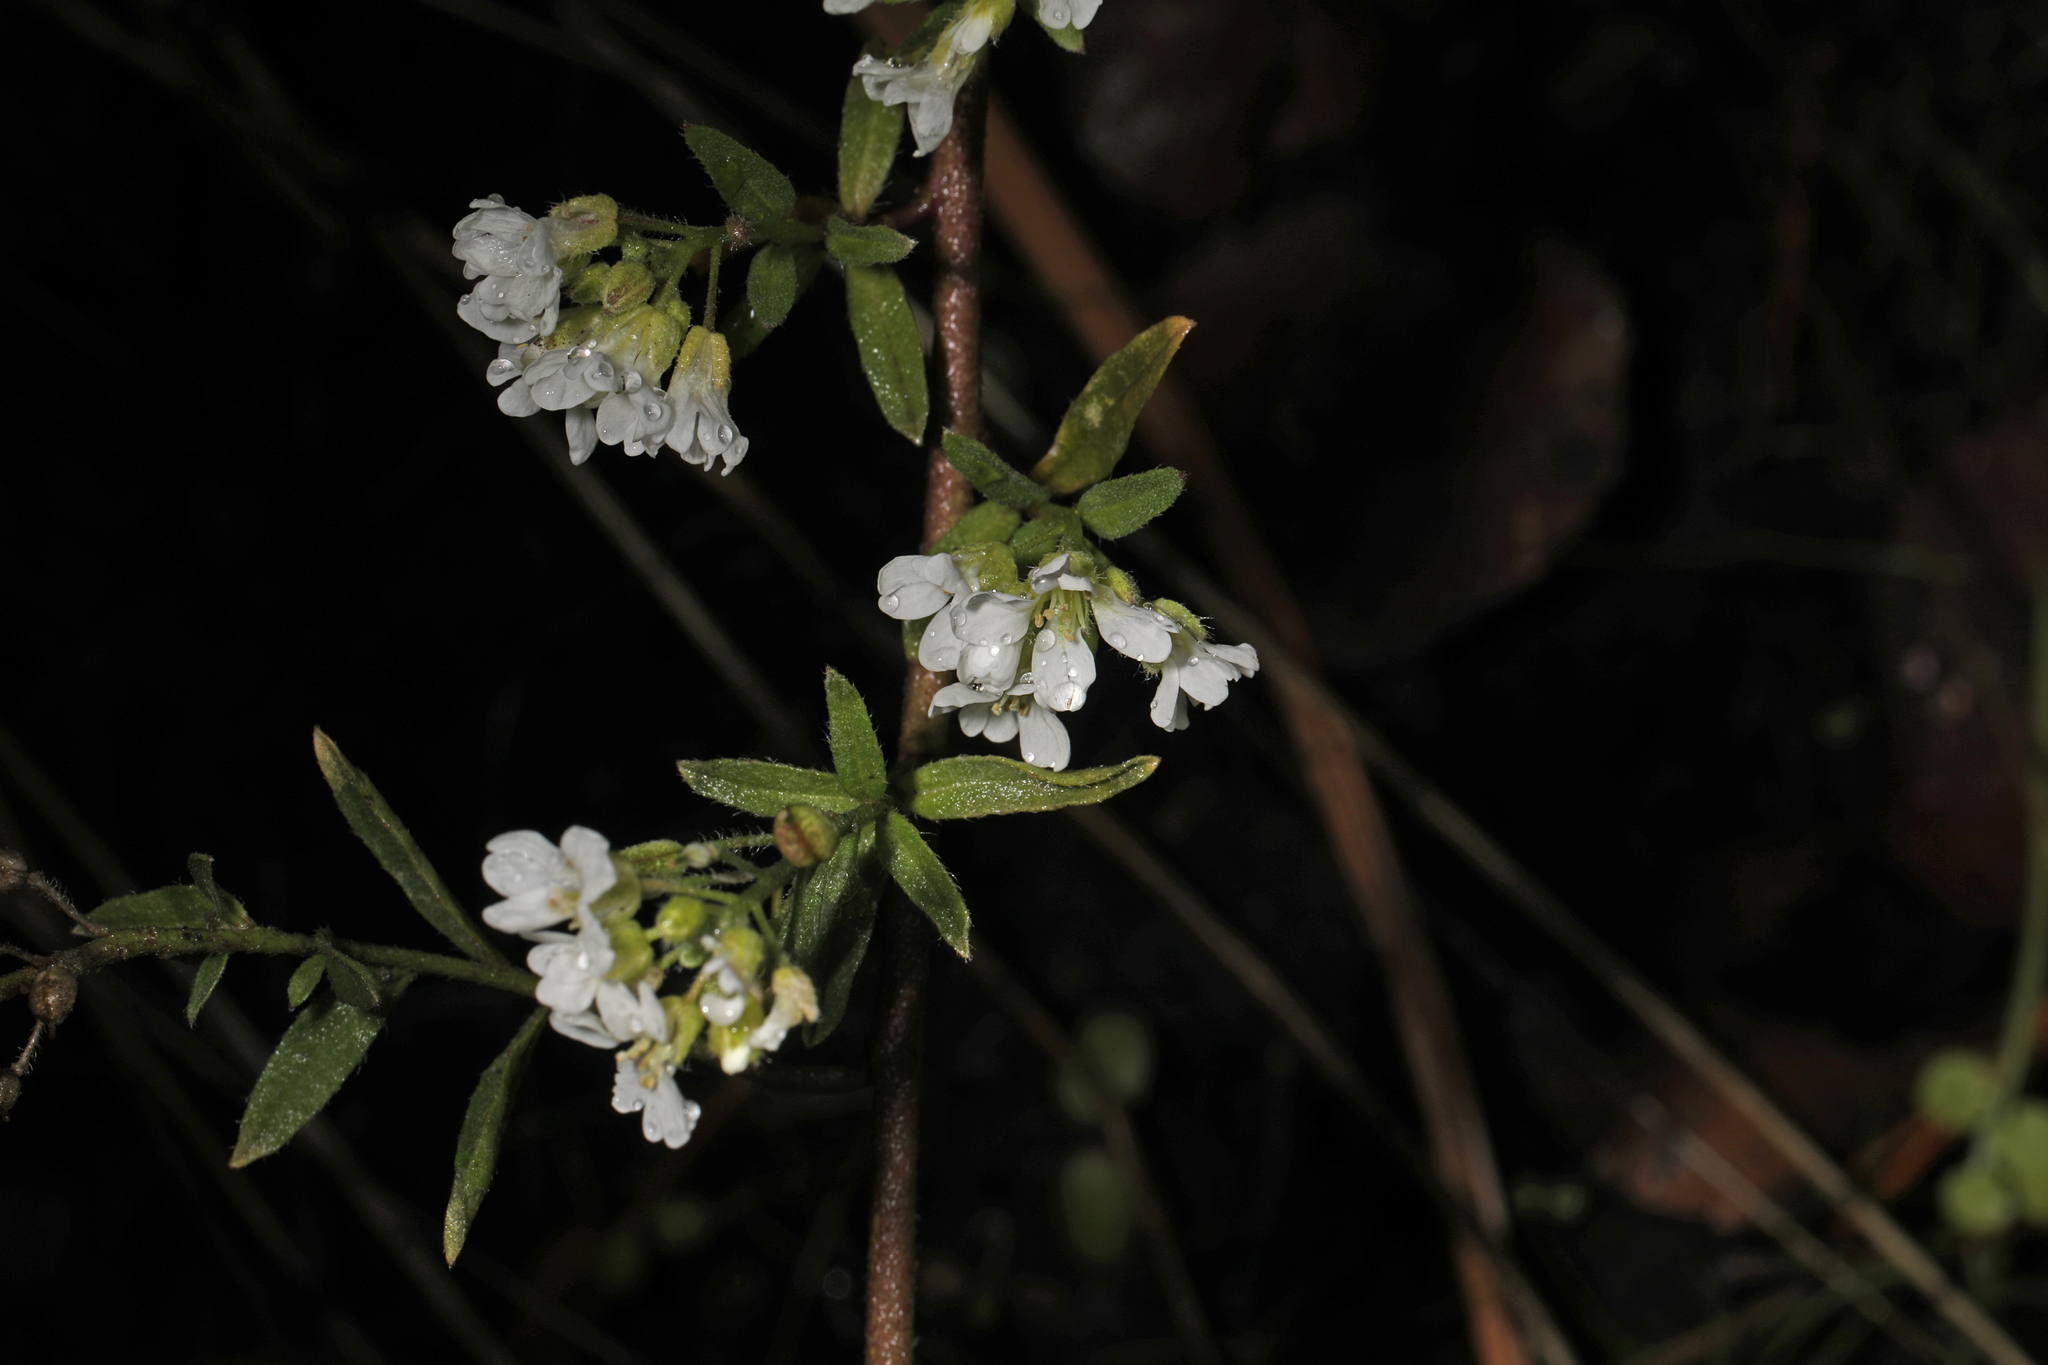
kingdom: Plantae
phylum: Tracheophyta
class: Magnoliopsida
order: Brassicales
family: Brassicaceae
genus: Berteroa
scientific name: Berteroa incana
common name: Hoary alison
